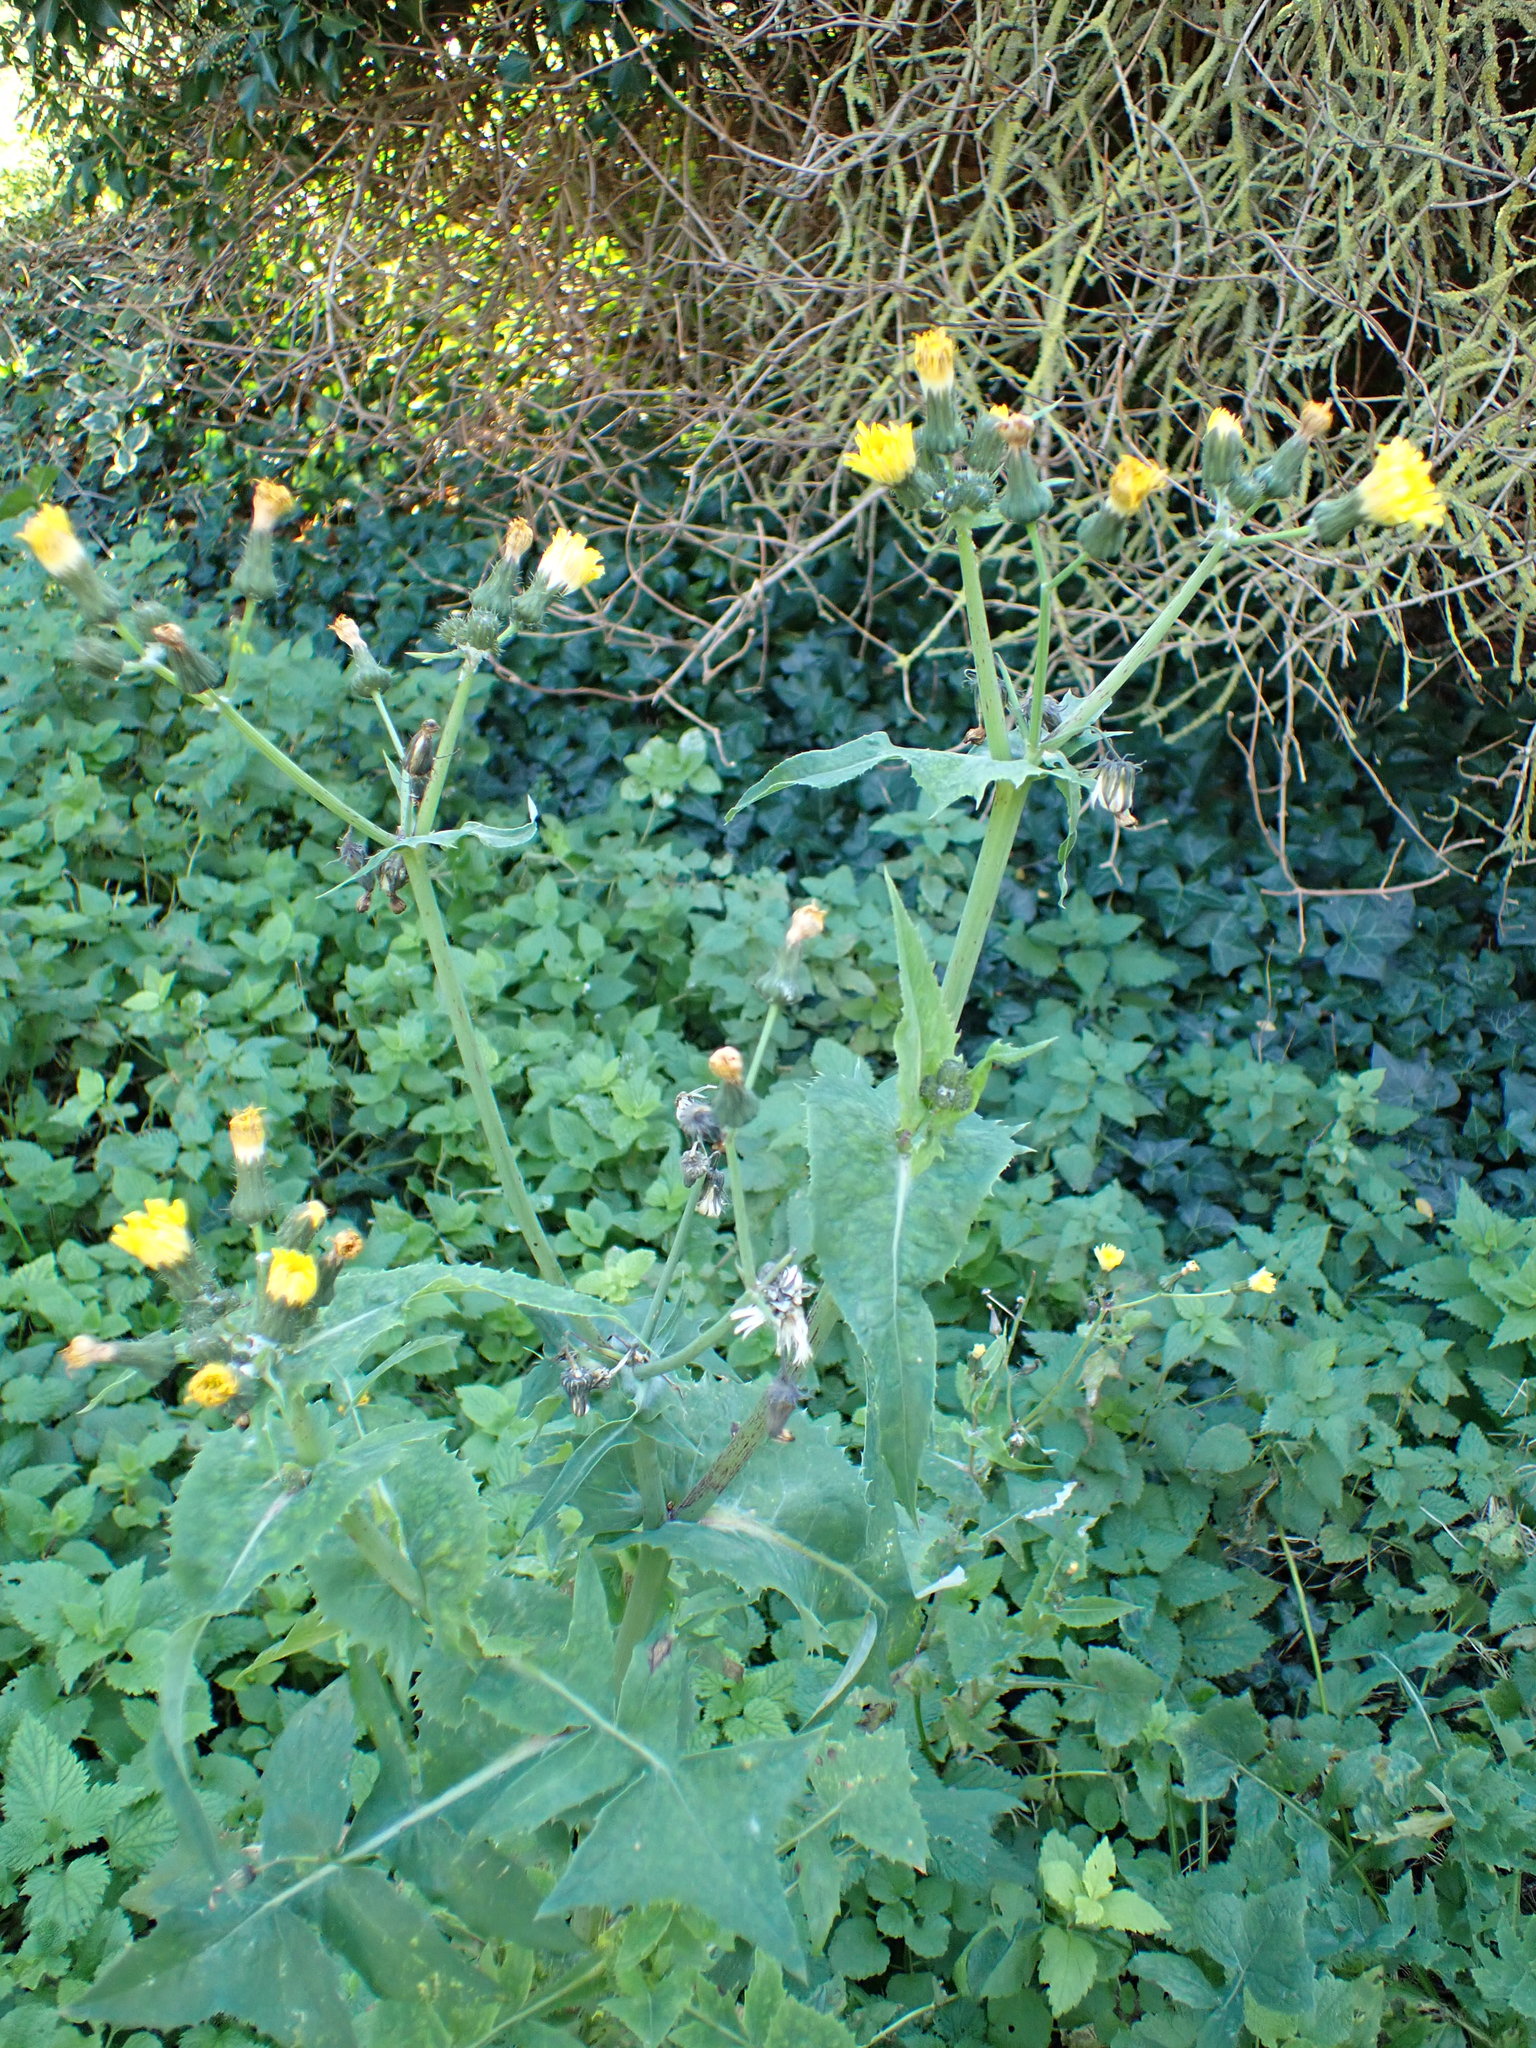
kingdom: Plantae
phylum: Tracheophyta
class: Magnoliopsida
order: Asterales
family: Asteraceae
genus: Sonchus
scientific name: Sonchus oleraceus
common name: Common sowthistle
